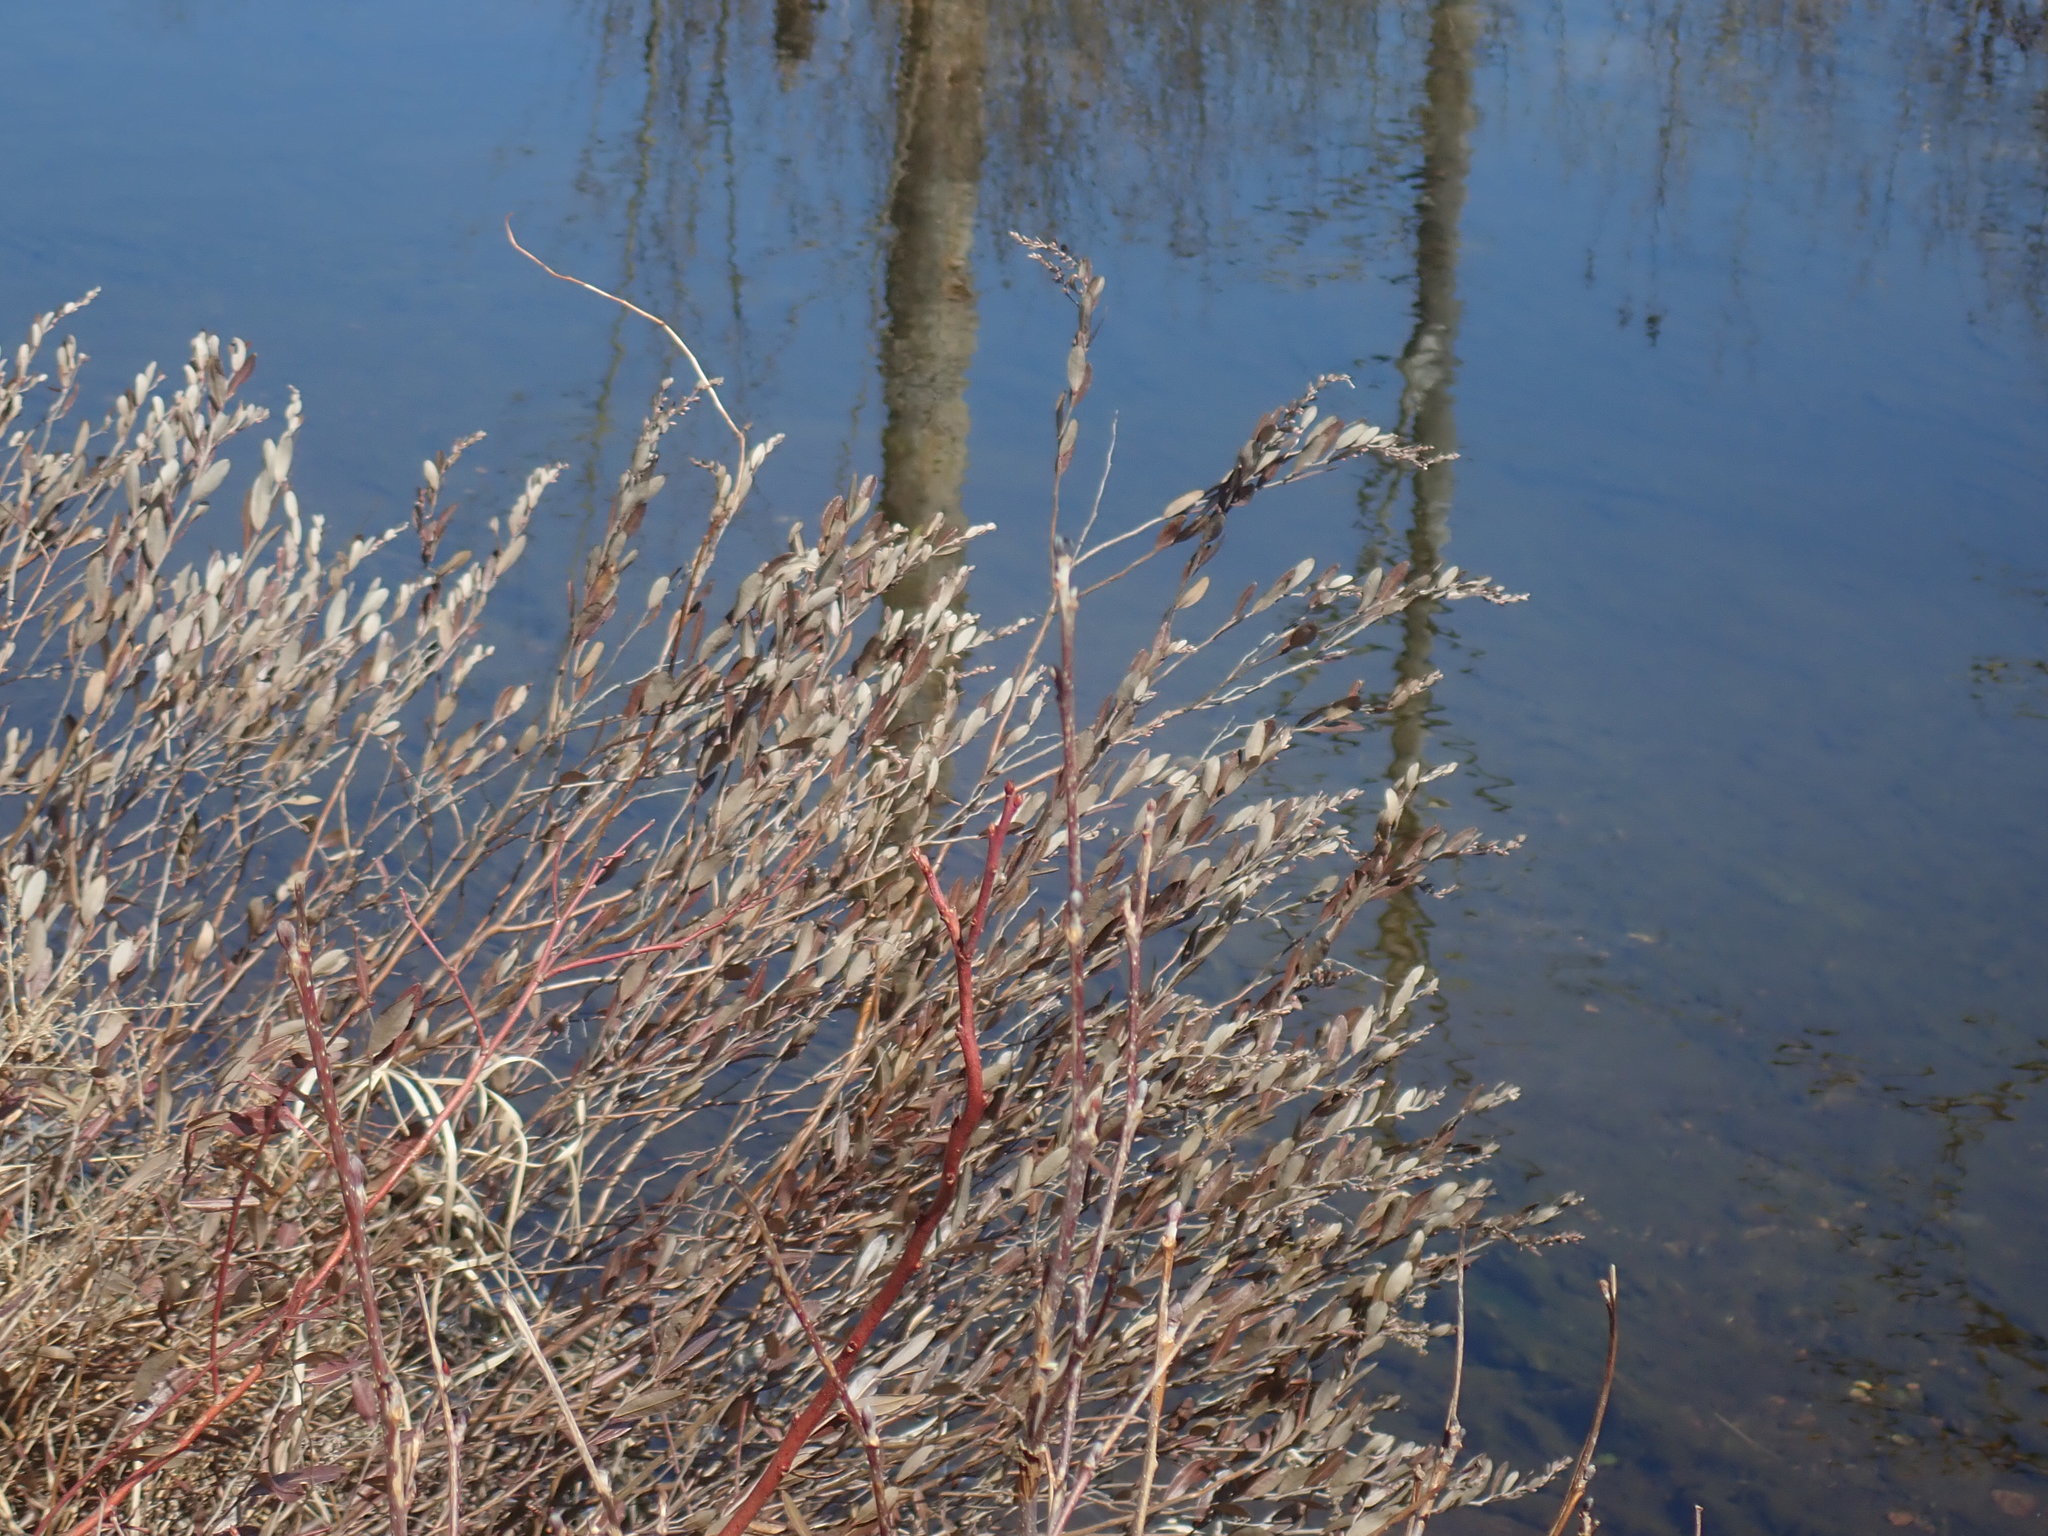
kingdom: Plantae
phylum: Tracheophyta
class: Magnoliopsida
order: Ericales
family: Ericaceae
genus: Chamaedaphne
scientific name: Chamaedaphne calyculata
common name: Leatherleaf
